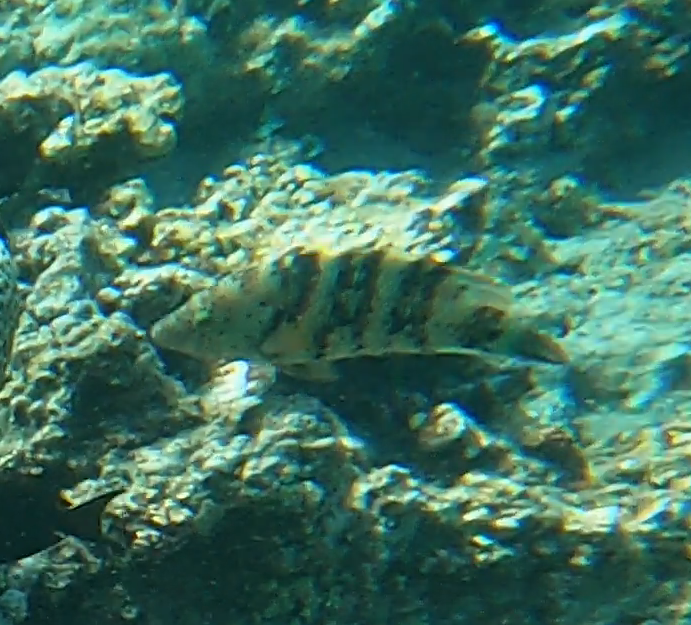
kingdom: Animalia
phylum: Chordata
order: Perciformes
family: Labridae
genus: Cheilinus
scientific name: Cheilinus lunulatus
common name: Broomtail wrasse
